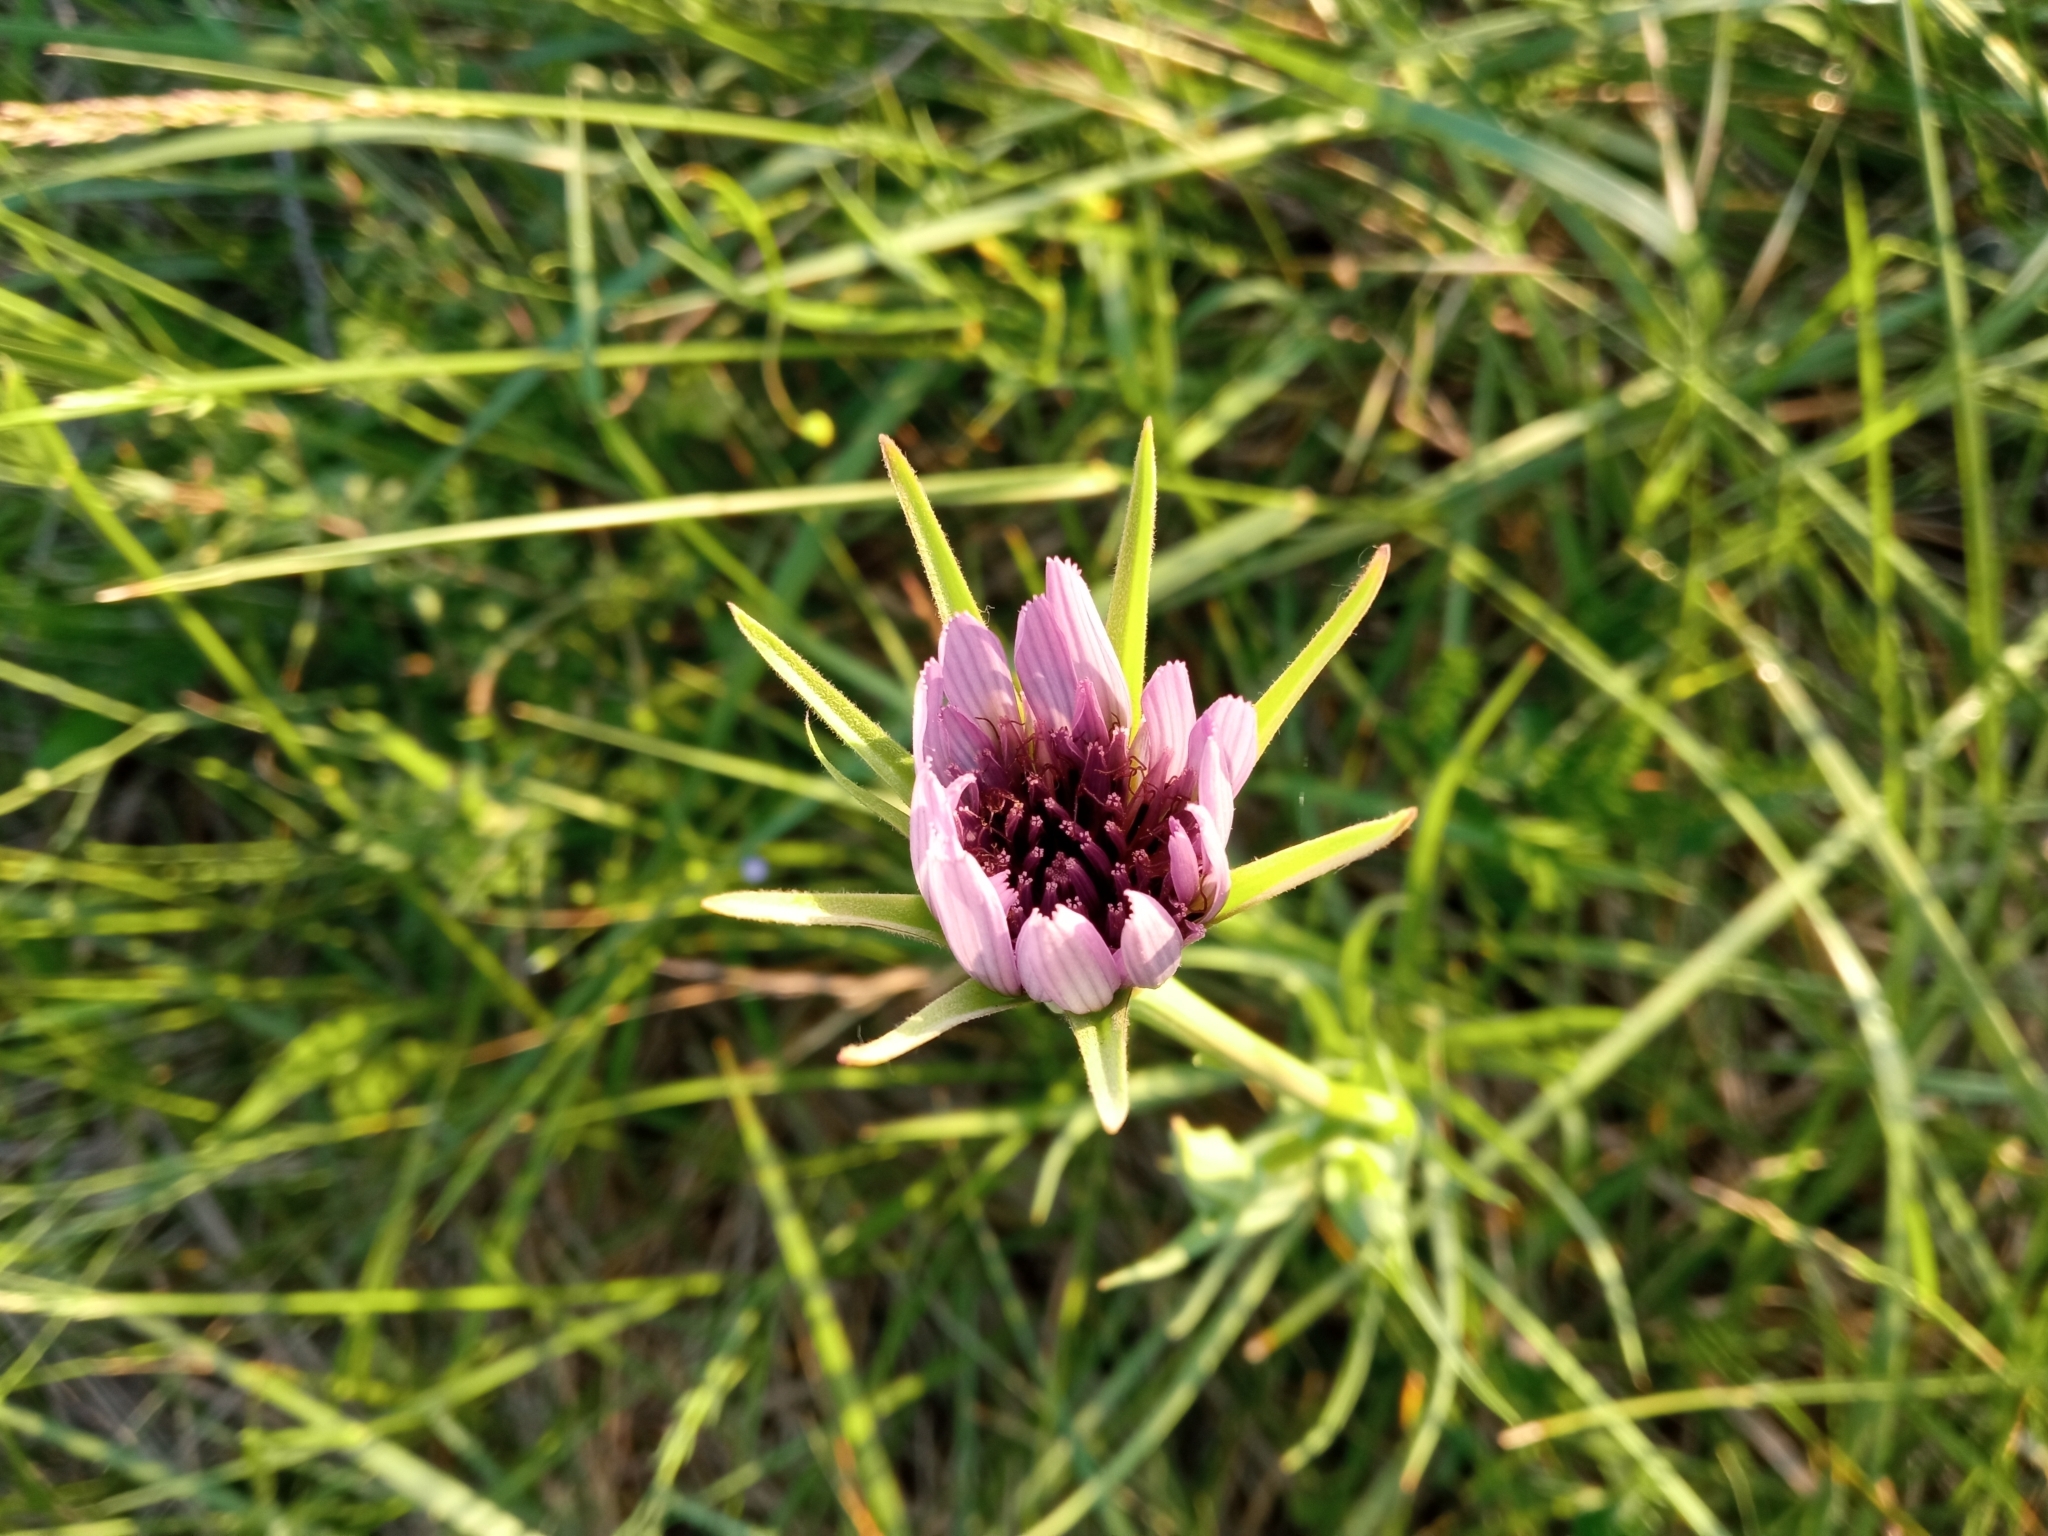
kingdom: Plantae
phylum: Tracheophyta
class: Magnoliopsida
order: Asterales
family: Asteraceae
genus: Tragopogon
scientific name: Tragopogon porrifolius
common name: Salsify
